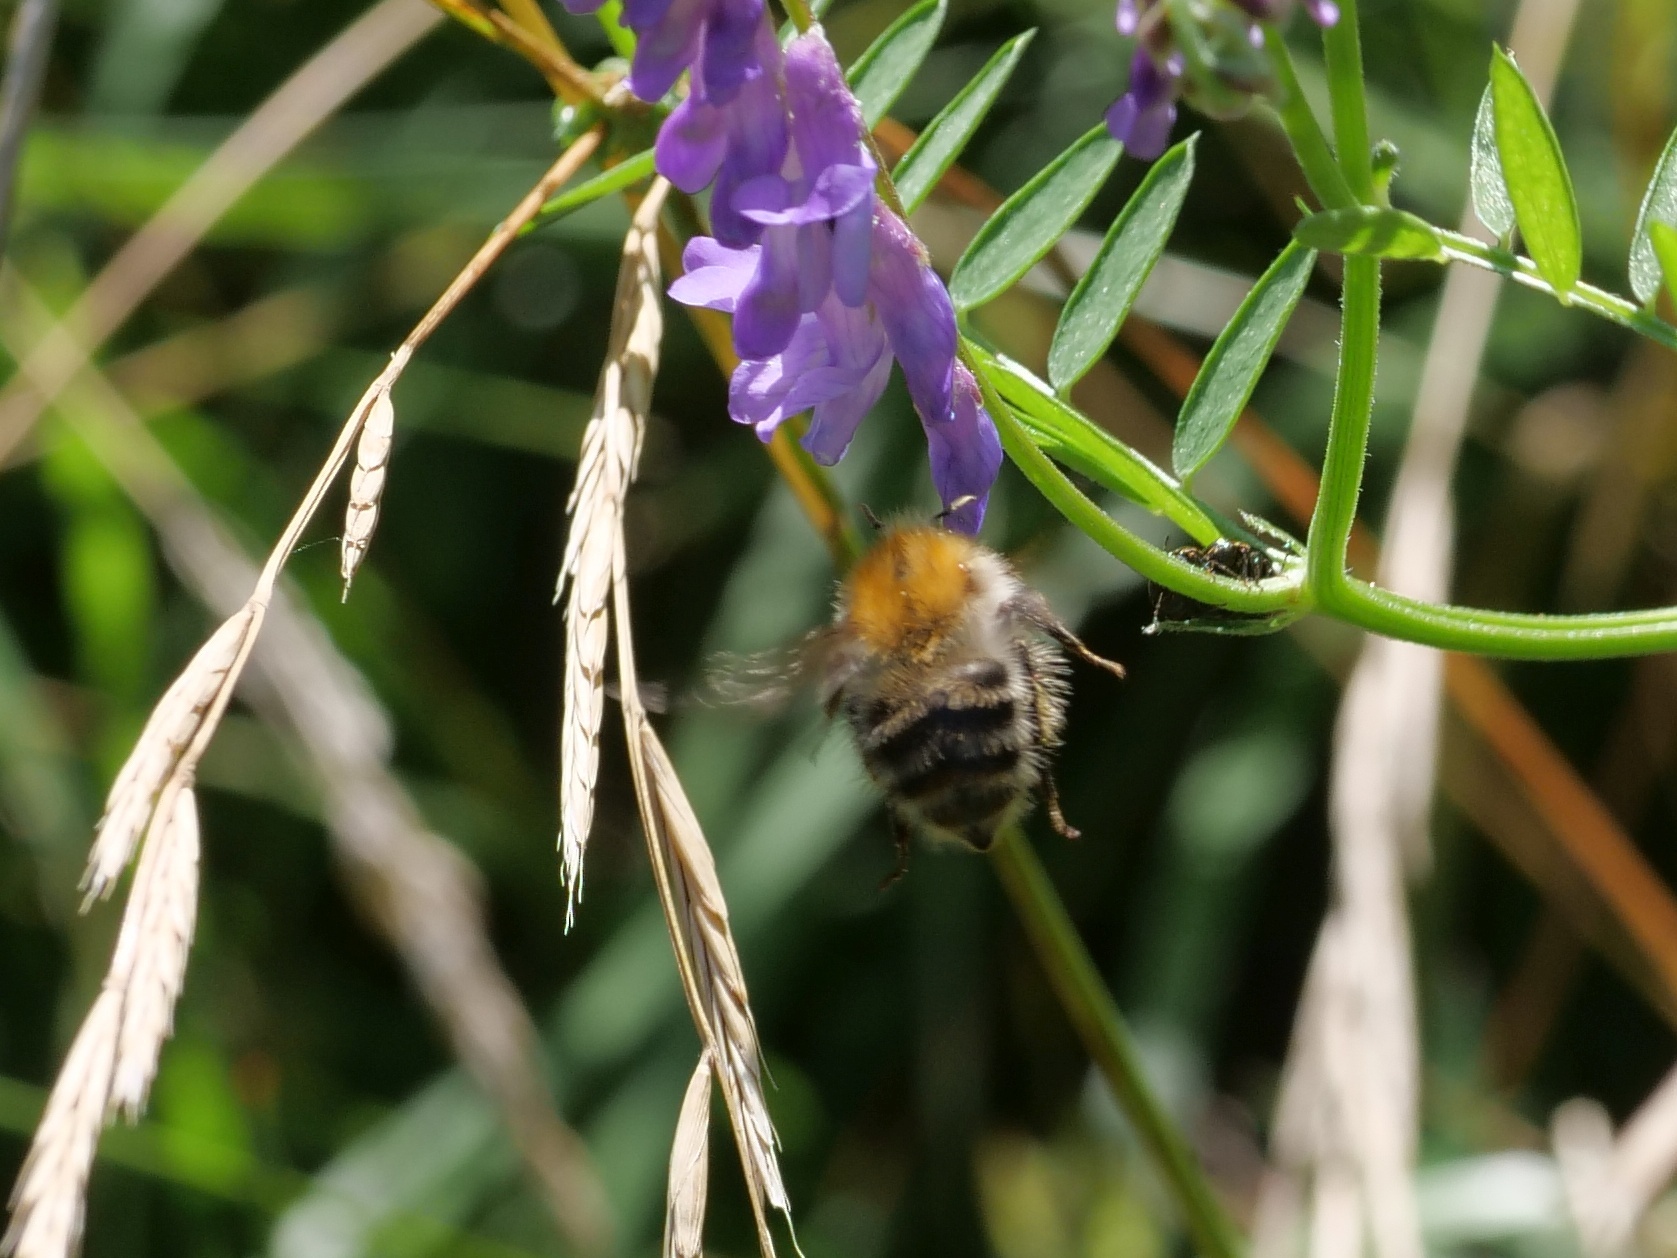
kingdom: Animalia
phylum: Arthropoda
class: Insecta
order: Hymenoptera
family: Apidae
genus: Bombus
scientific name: Bombus pascuorum
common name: Common carder bee
